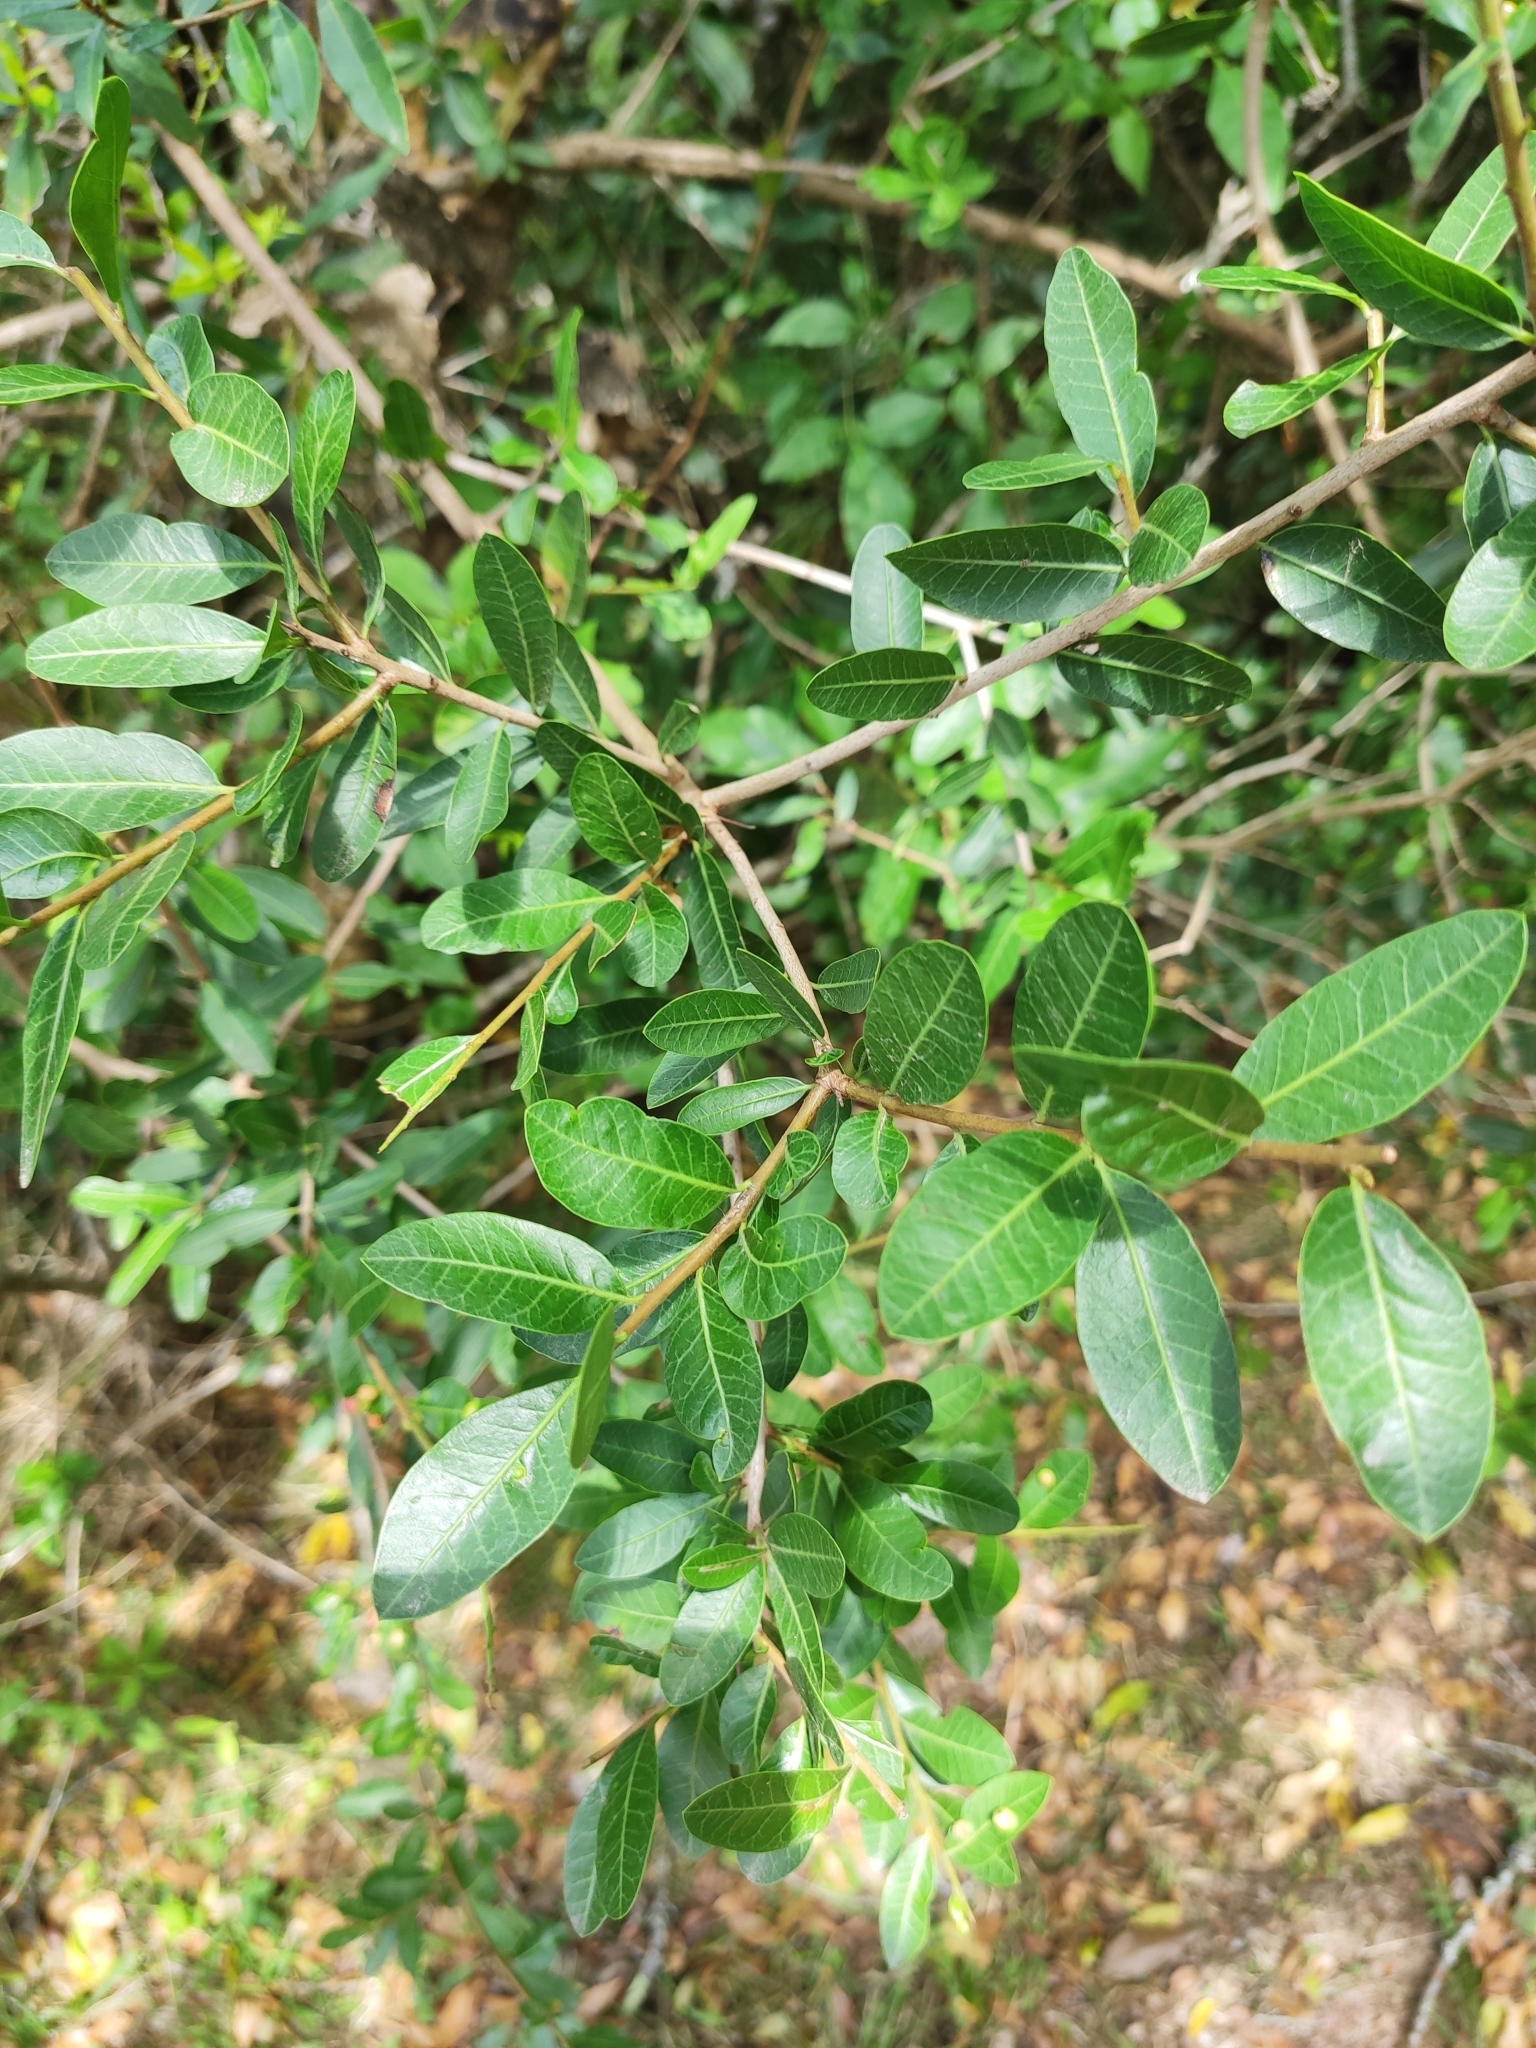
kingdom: Plantae
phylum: Tracheophyta
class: Magnoliopsida
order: Malvales
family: Thymelaeaceae
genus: Daphnopsis
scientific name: Daphnopsis racemosa
